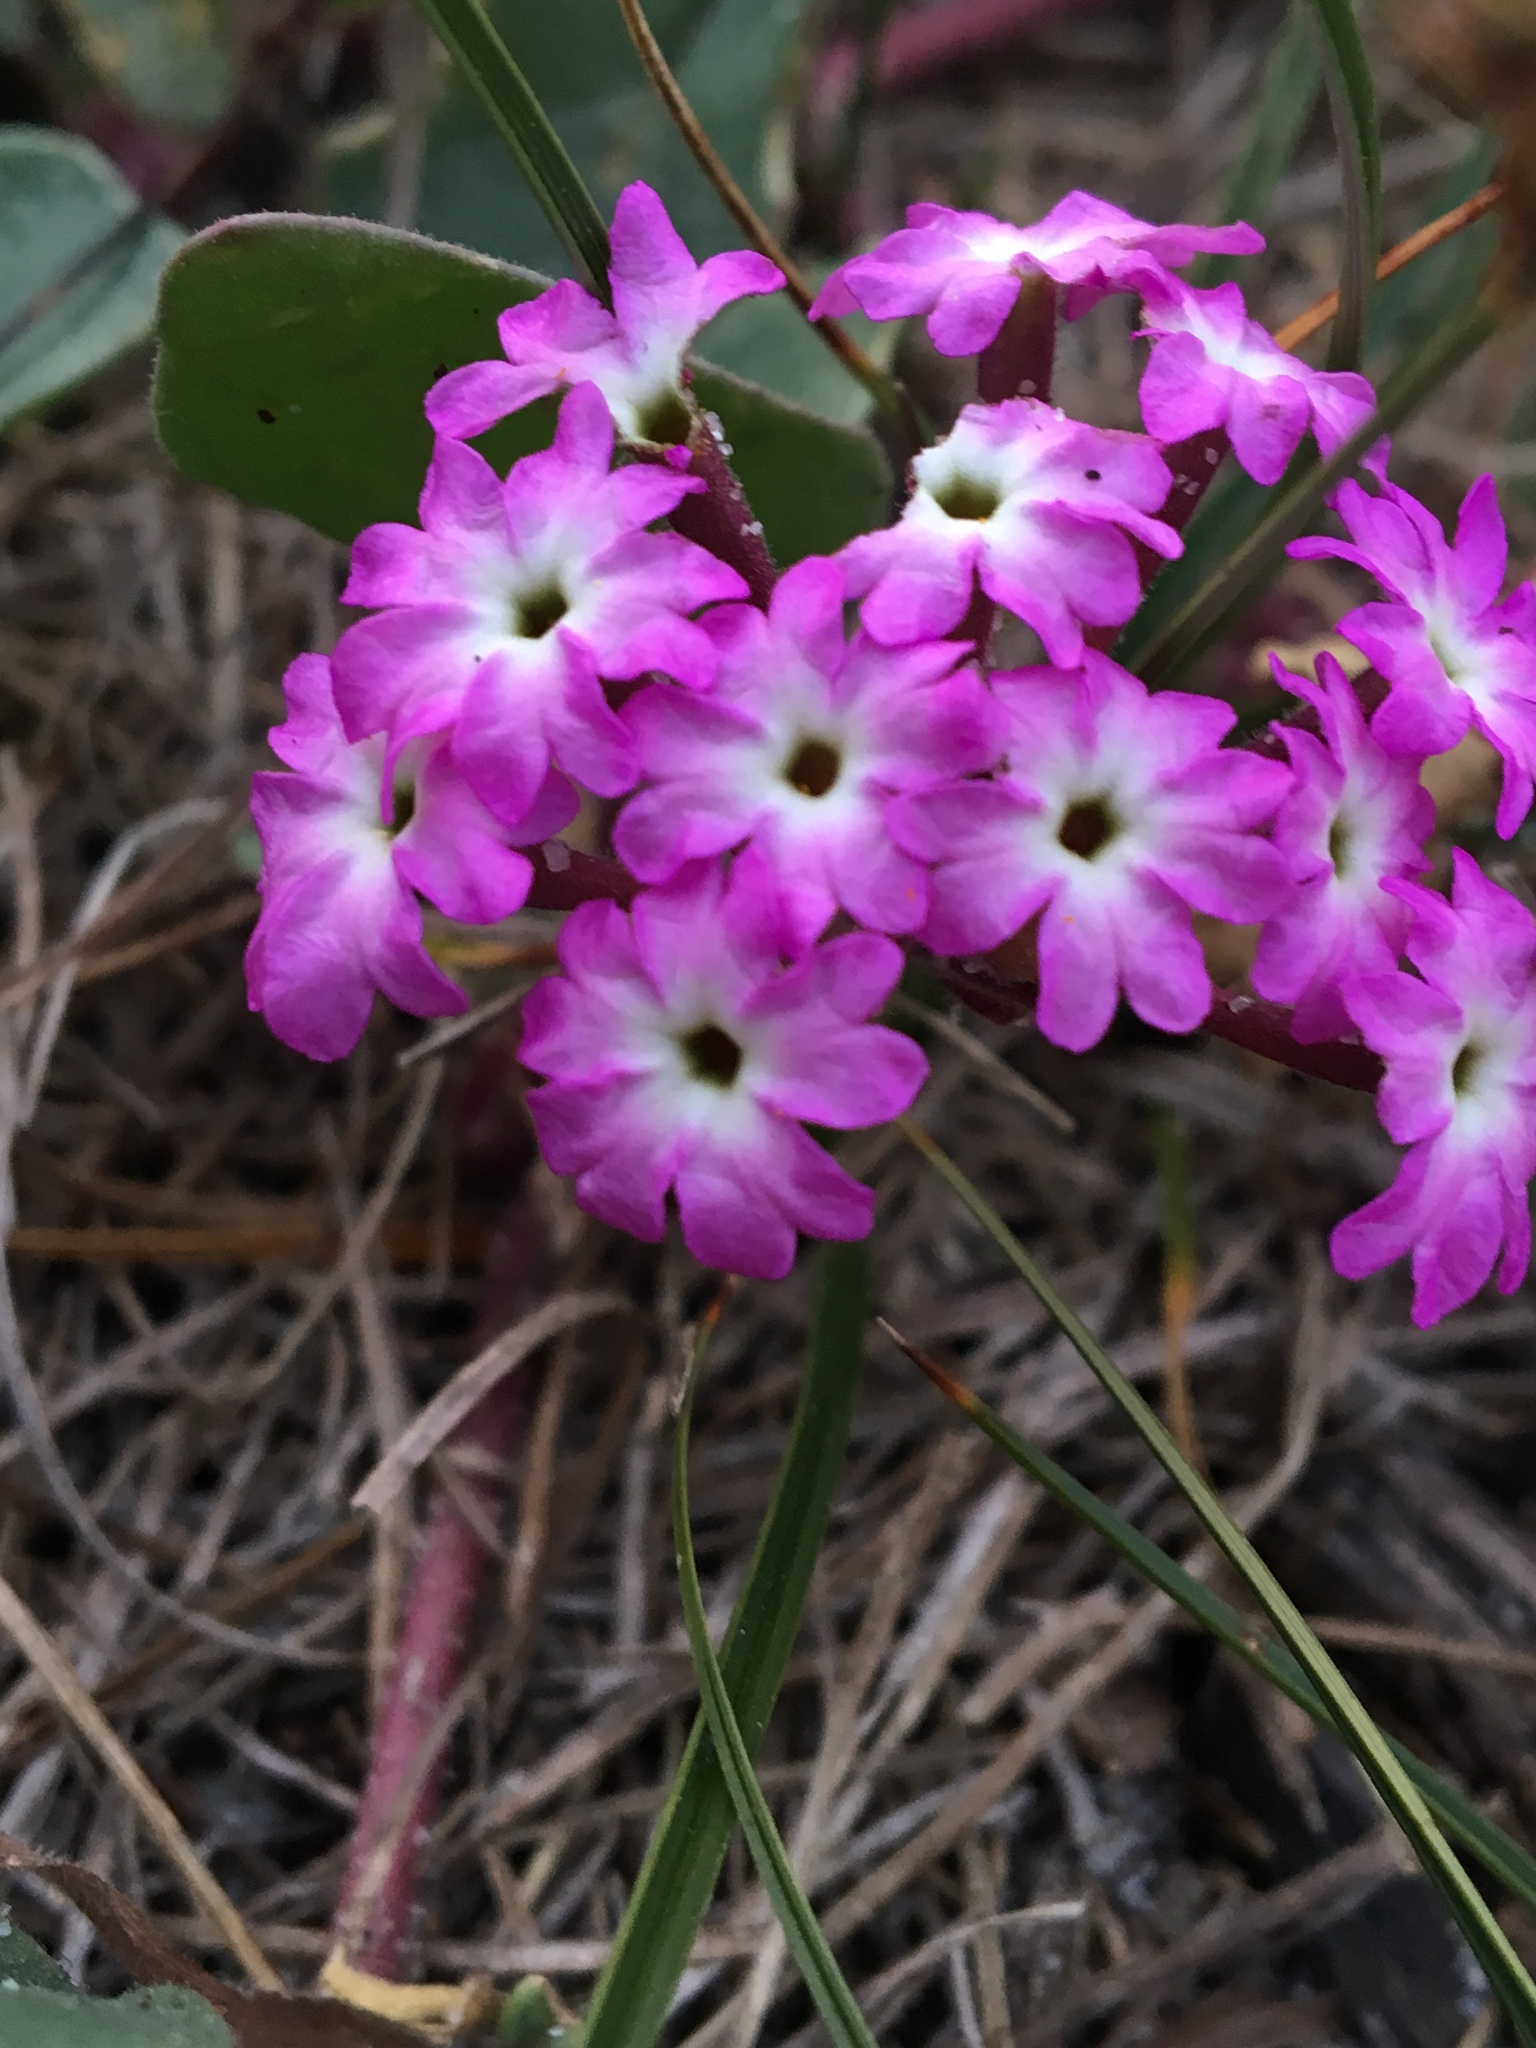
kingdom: Plantae
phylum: Tracheophyta
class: Magnoliopsida
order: Caryophyllales
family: Nyctaginaceae
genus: Abronia
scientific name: Abronia umbellata
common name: Sand-verbena
